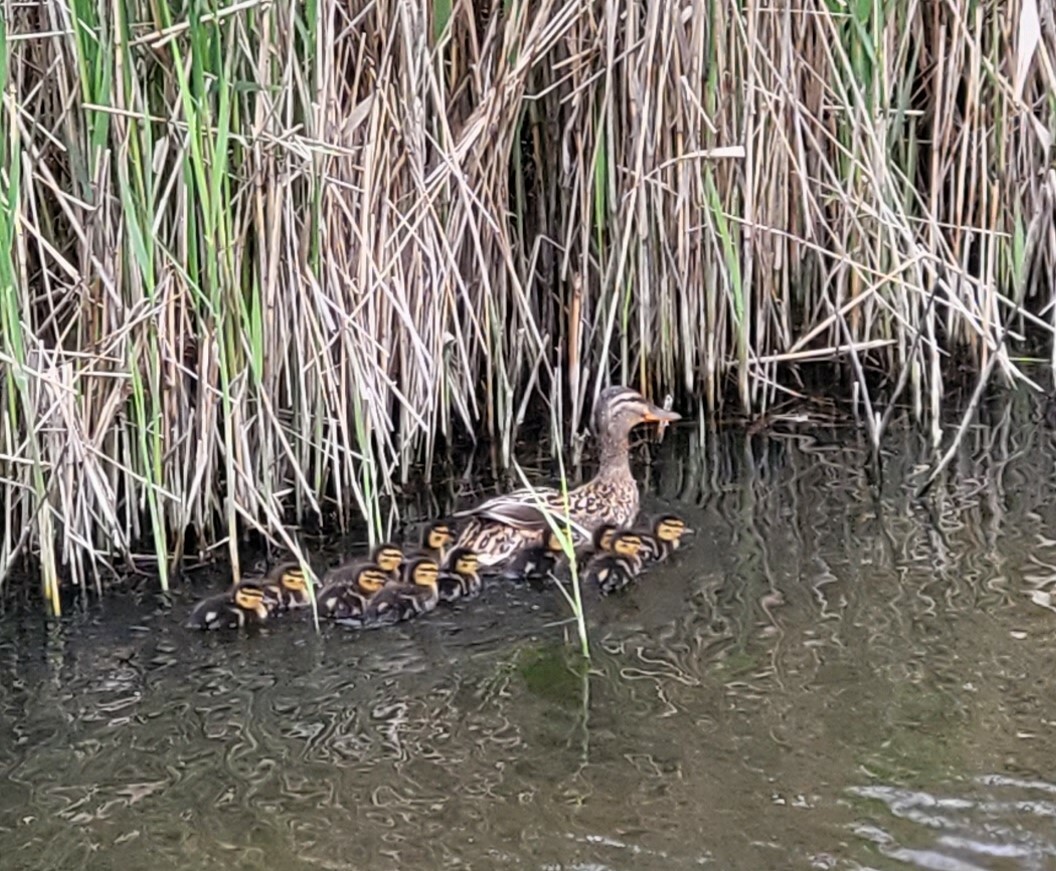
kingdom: Animalia
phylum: Chordata
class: Aves
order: Anseriformes
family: Anatidae
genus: Anas
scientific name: Anas platyrhynchos
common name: Mallard
